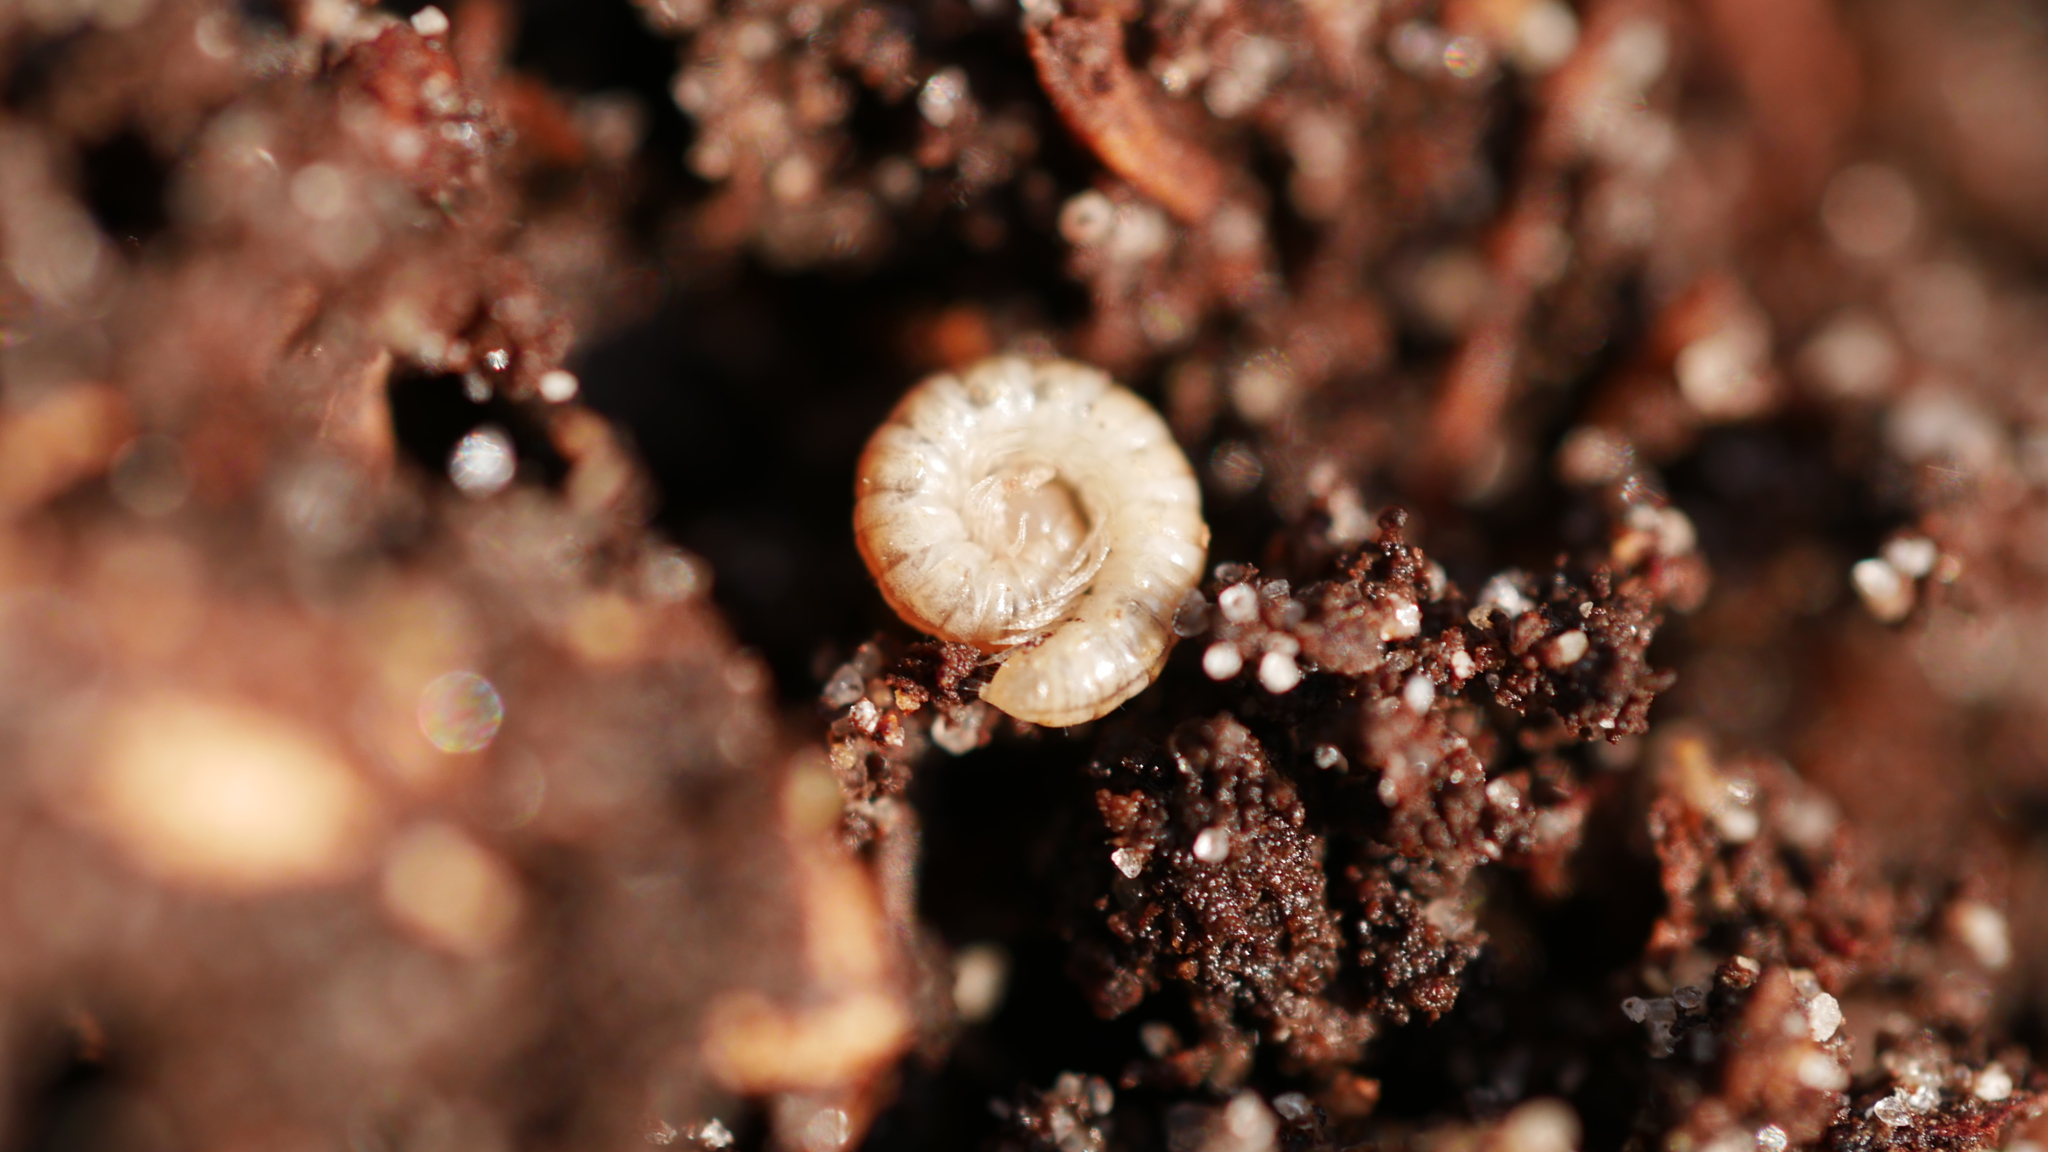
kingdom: Animalia
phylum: Arthropoda
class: Diplopoda
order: Polydesmida
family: Paradoxosomatidae
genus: Oxidus
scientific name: Oxidus gracilis
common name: Greenhouse millipede
